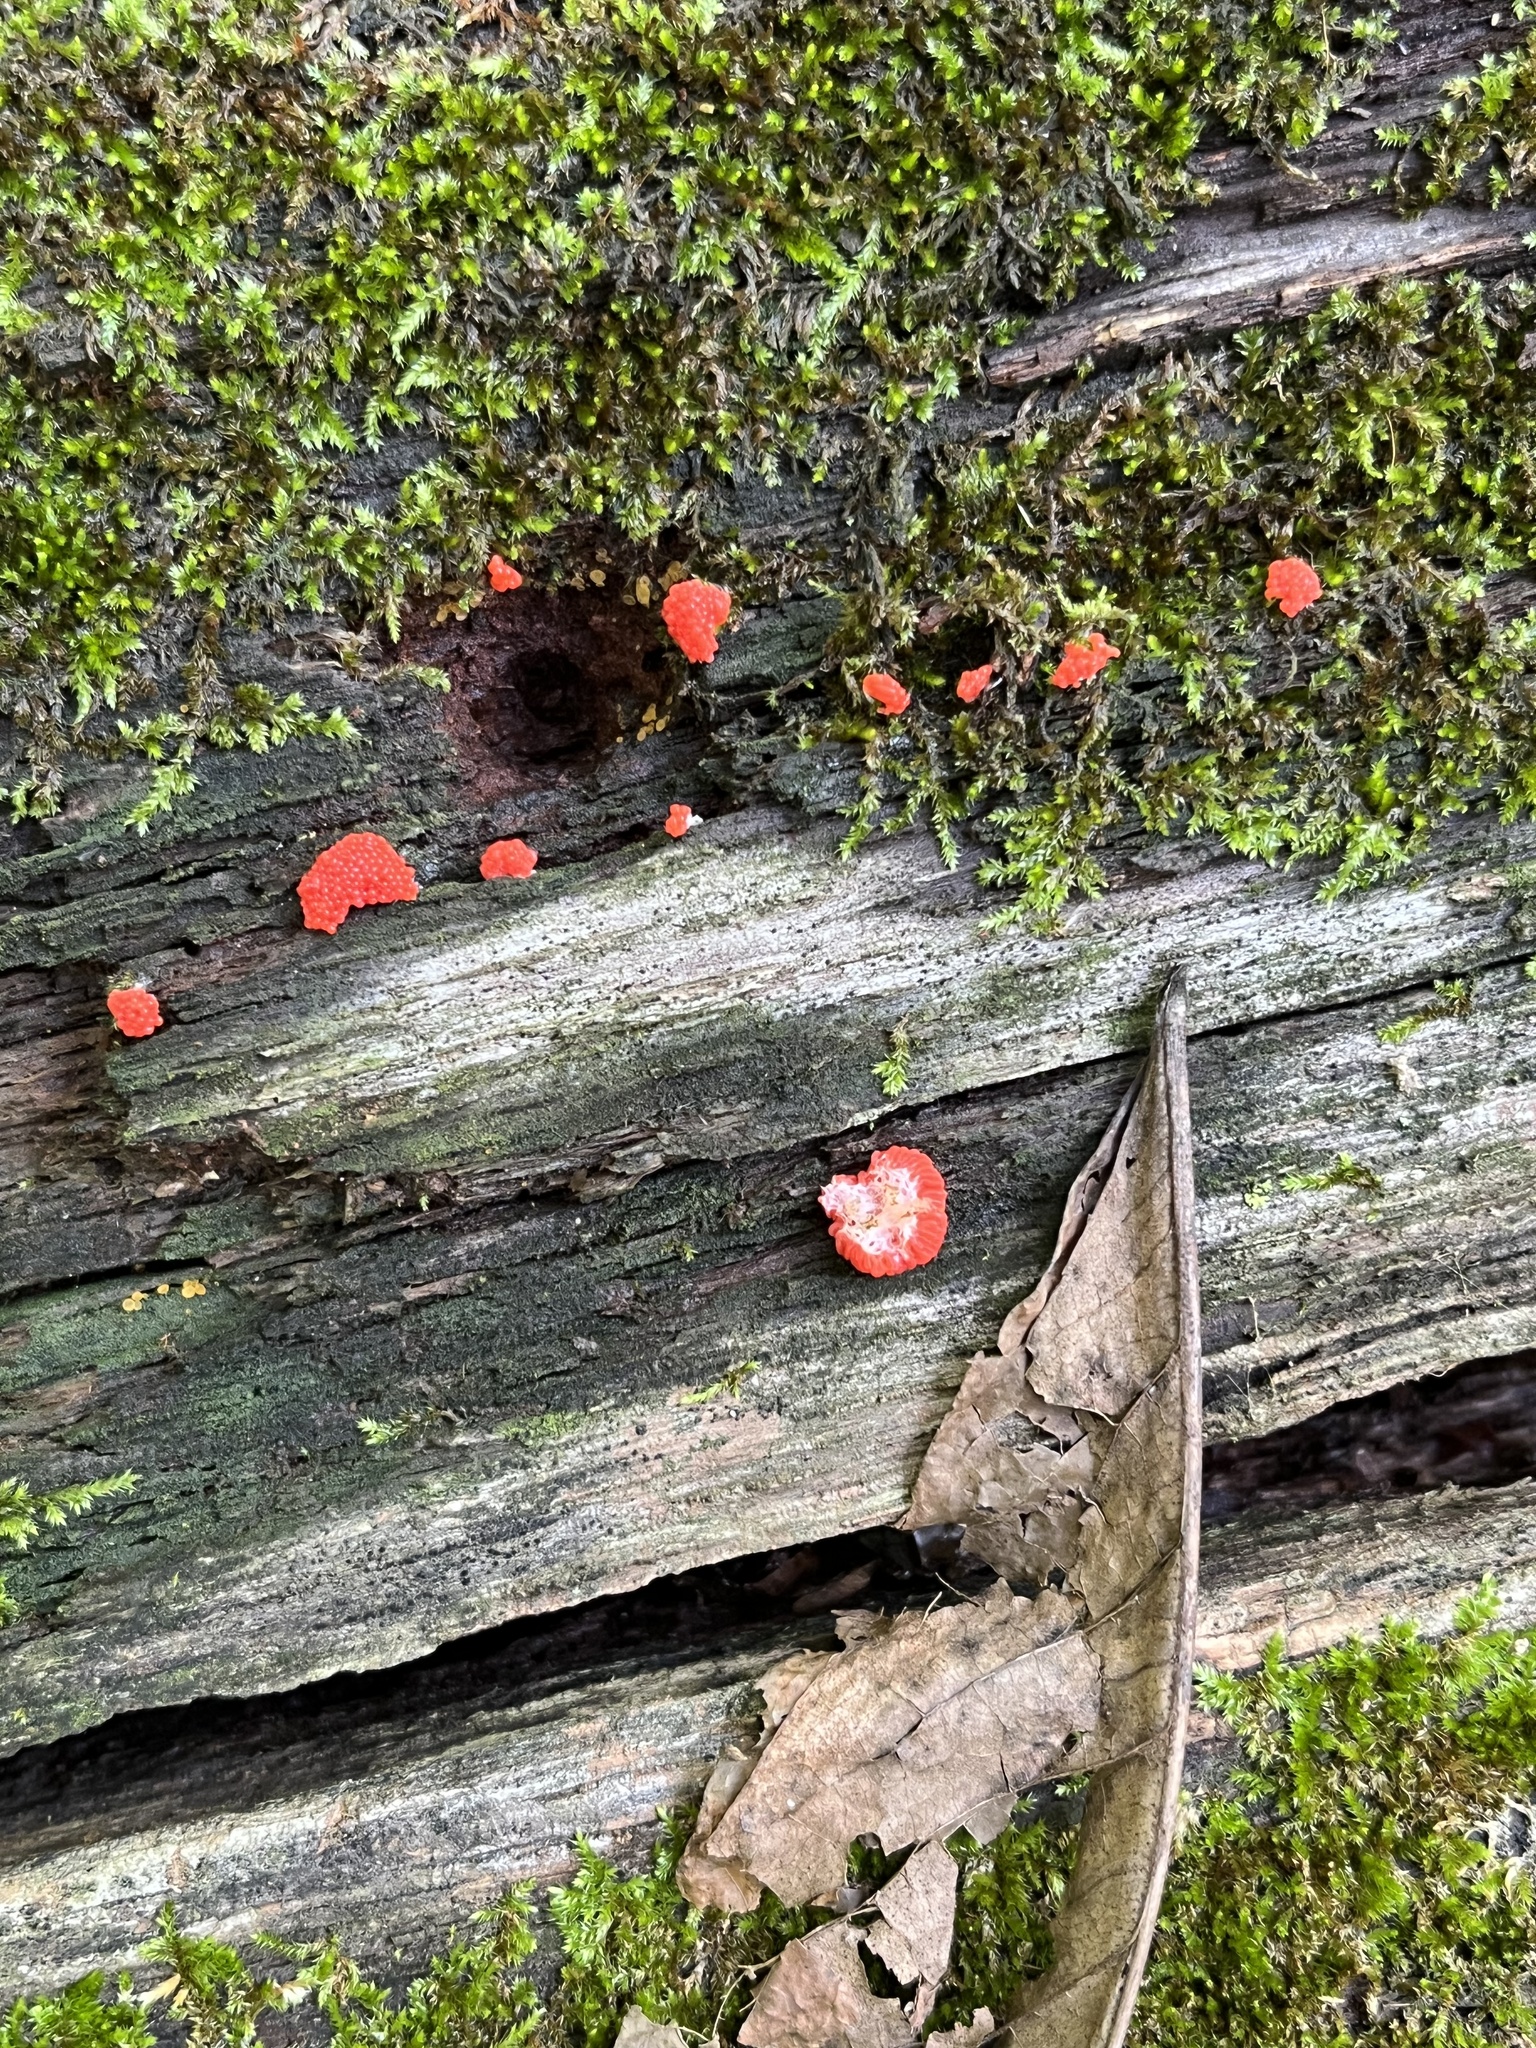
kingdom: Protozoa
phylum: Mycetozoa
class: Myxomycetes
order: Cribrariales
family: Tubiferaceae
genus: Tubifera
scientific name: Tubifera ferruginosa
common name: Red raspberry slime mold
